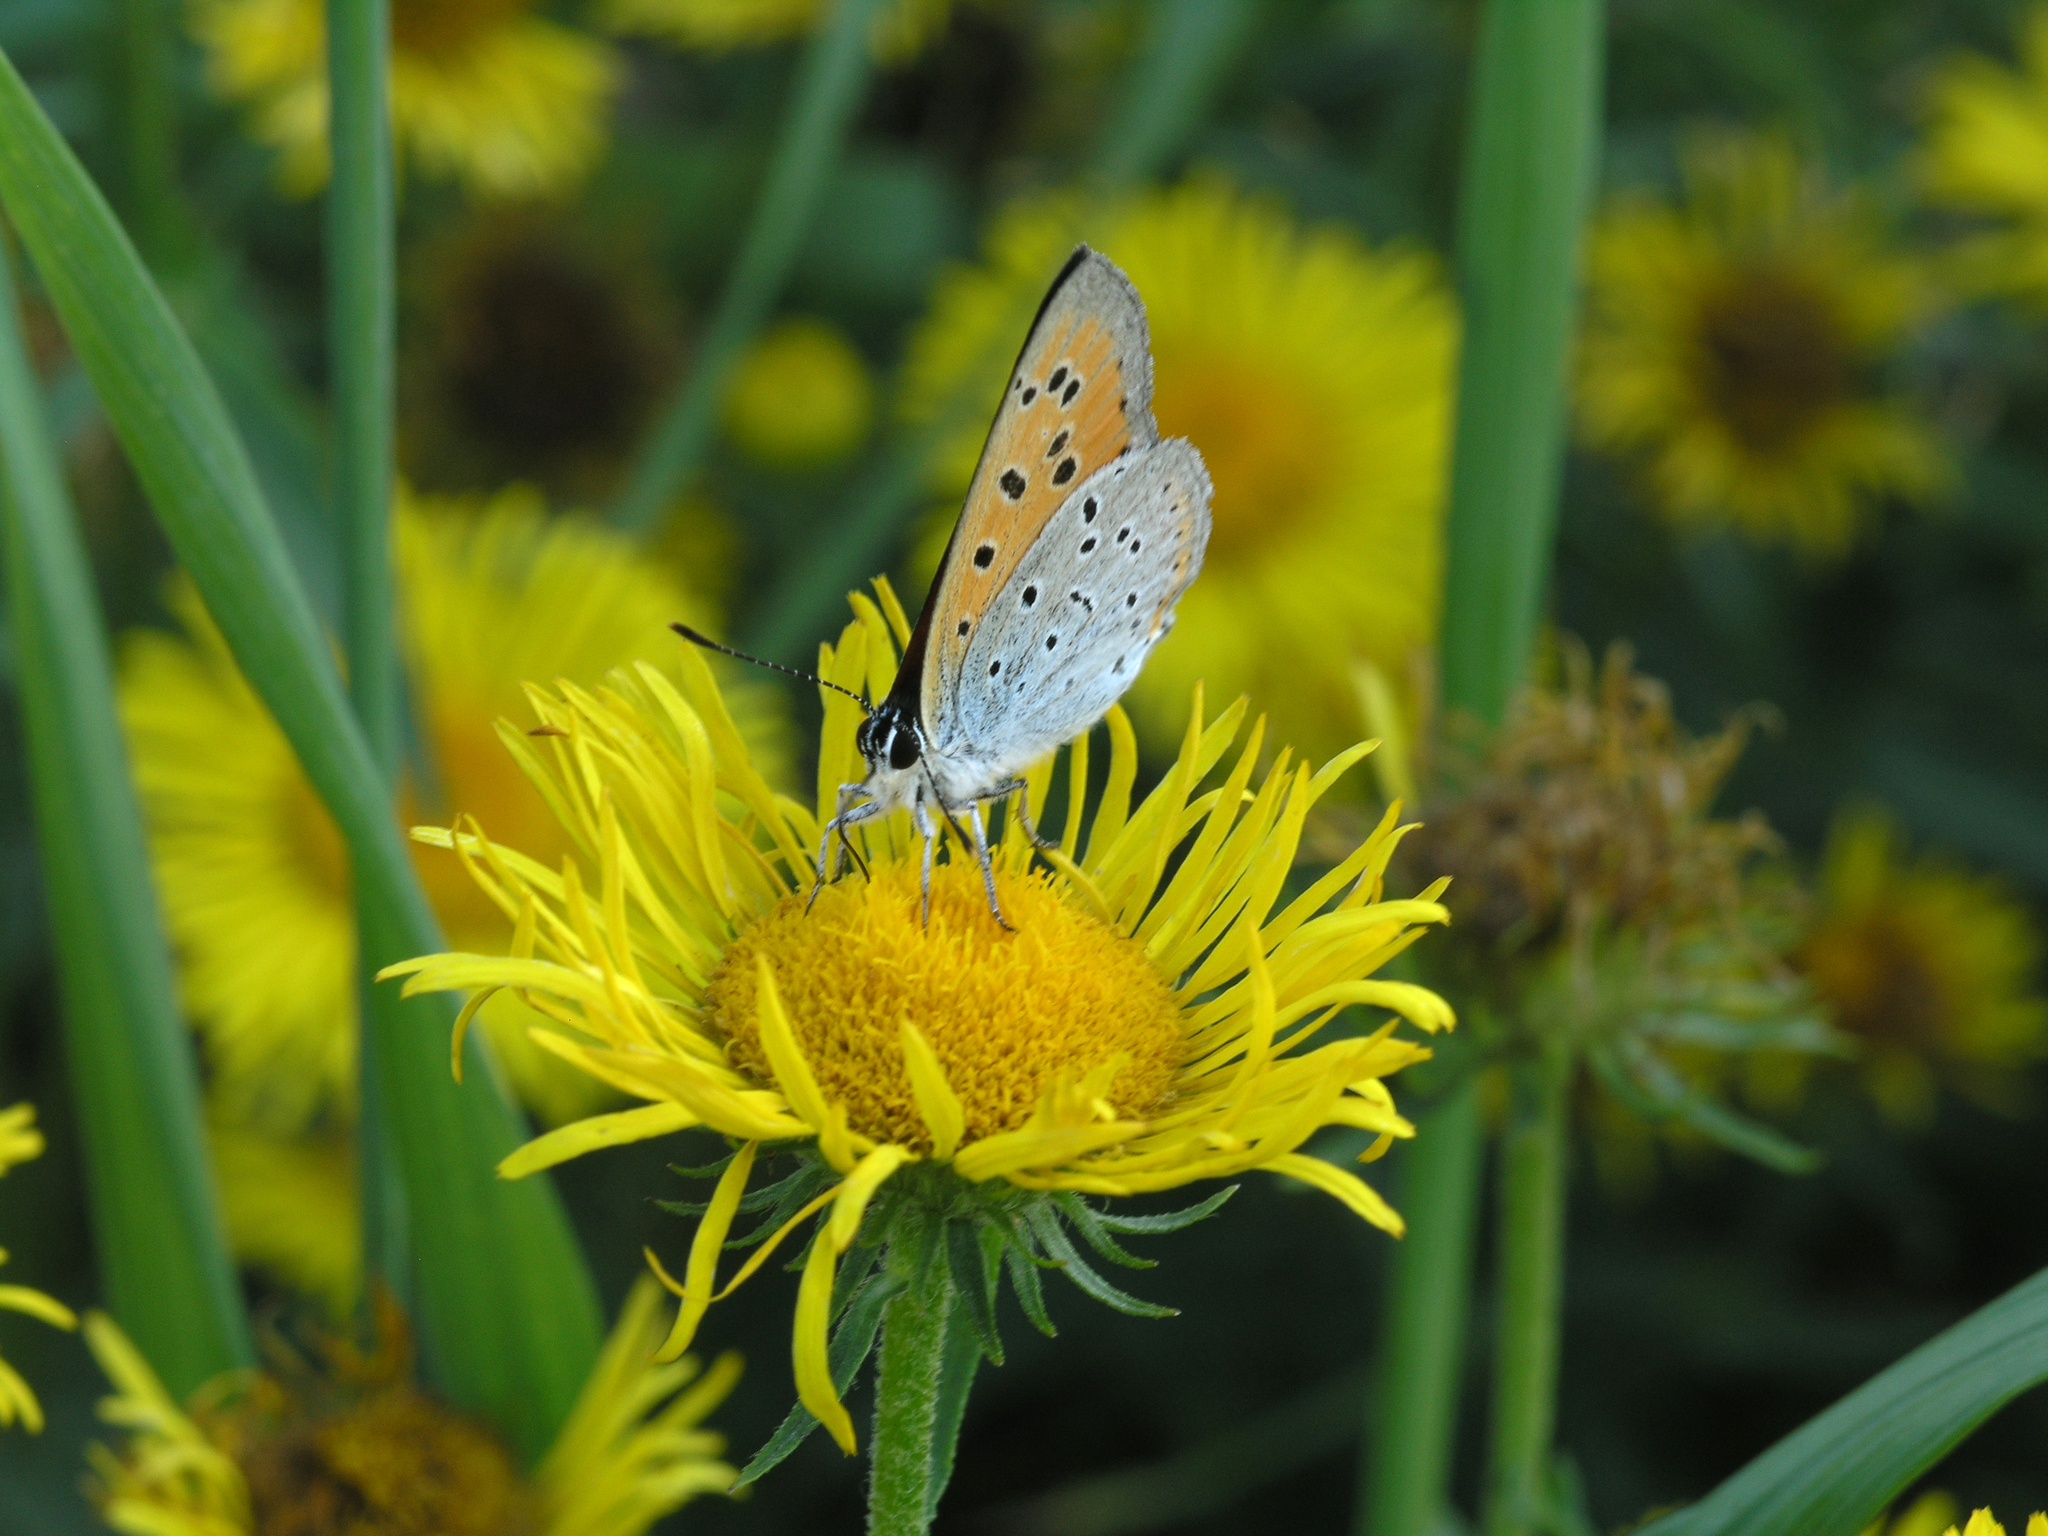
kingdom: Animalia
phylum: Arthropoda
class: Insecta
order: Lepidoptera
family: Lycaenidae
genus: Lycaena
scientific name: Lycaena dispar
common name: Large copper
